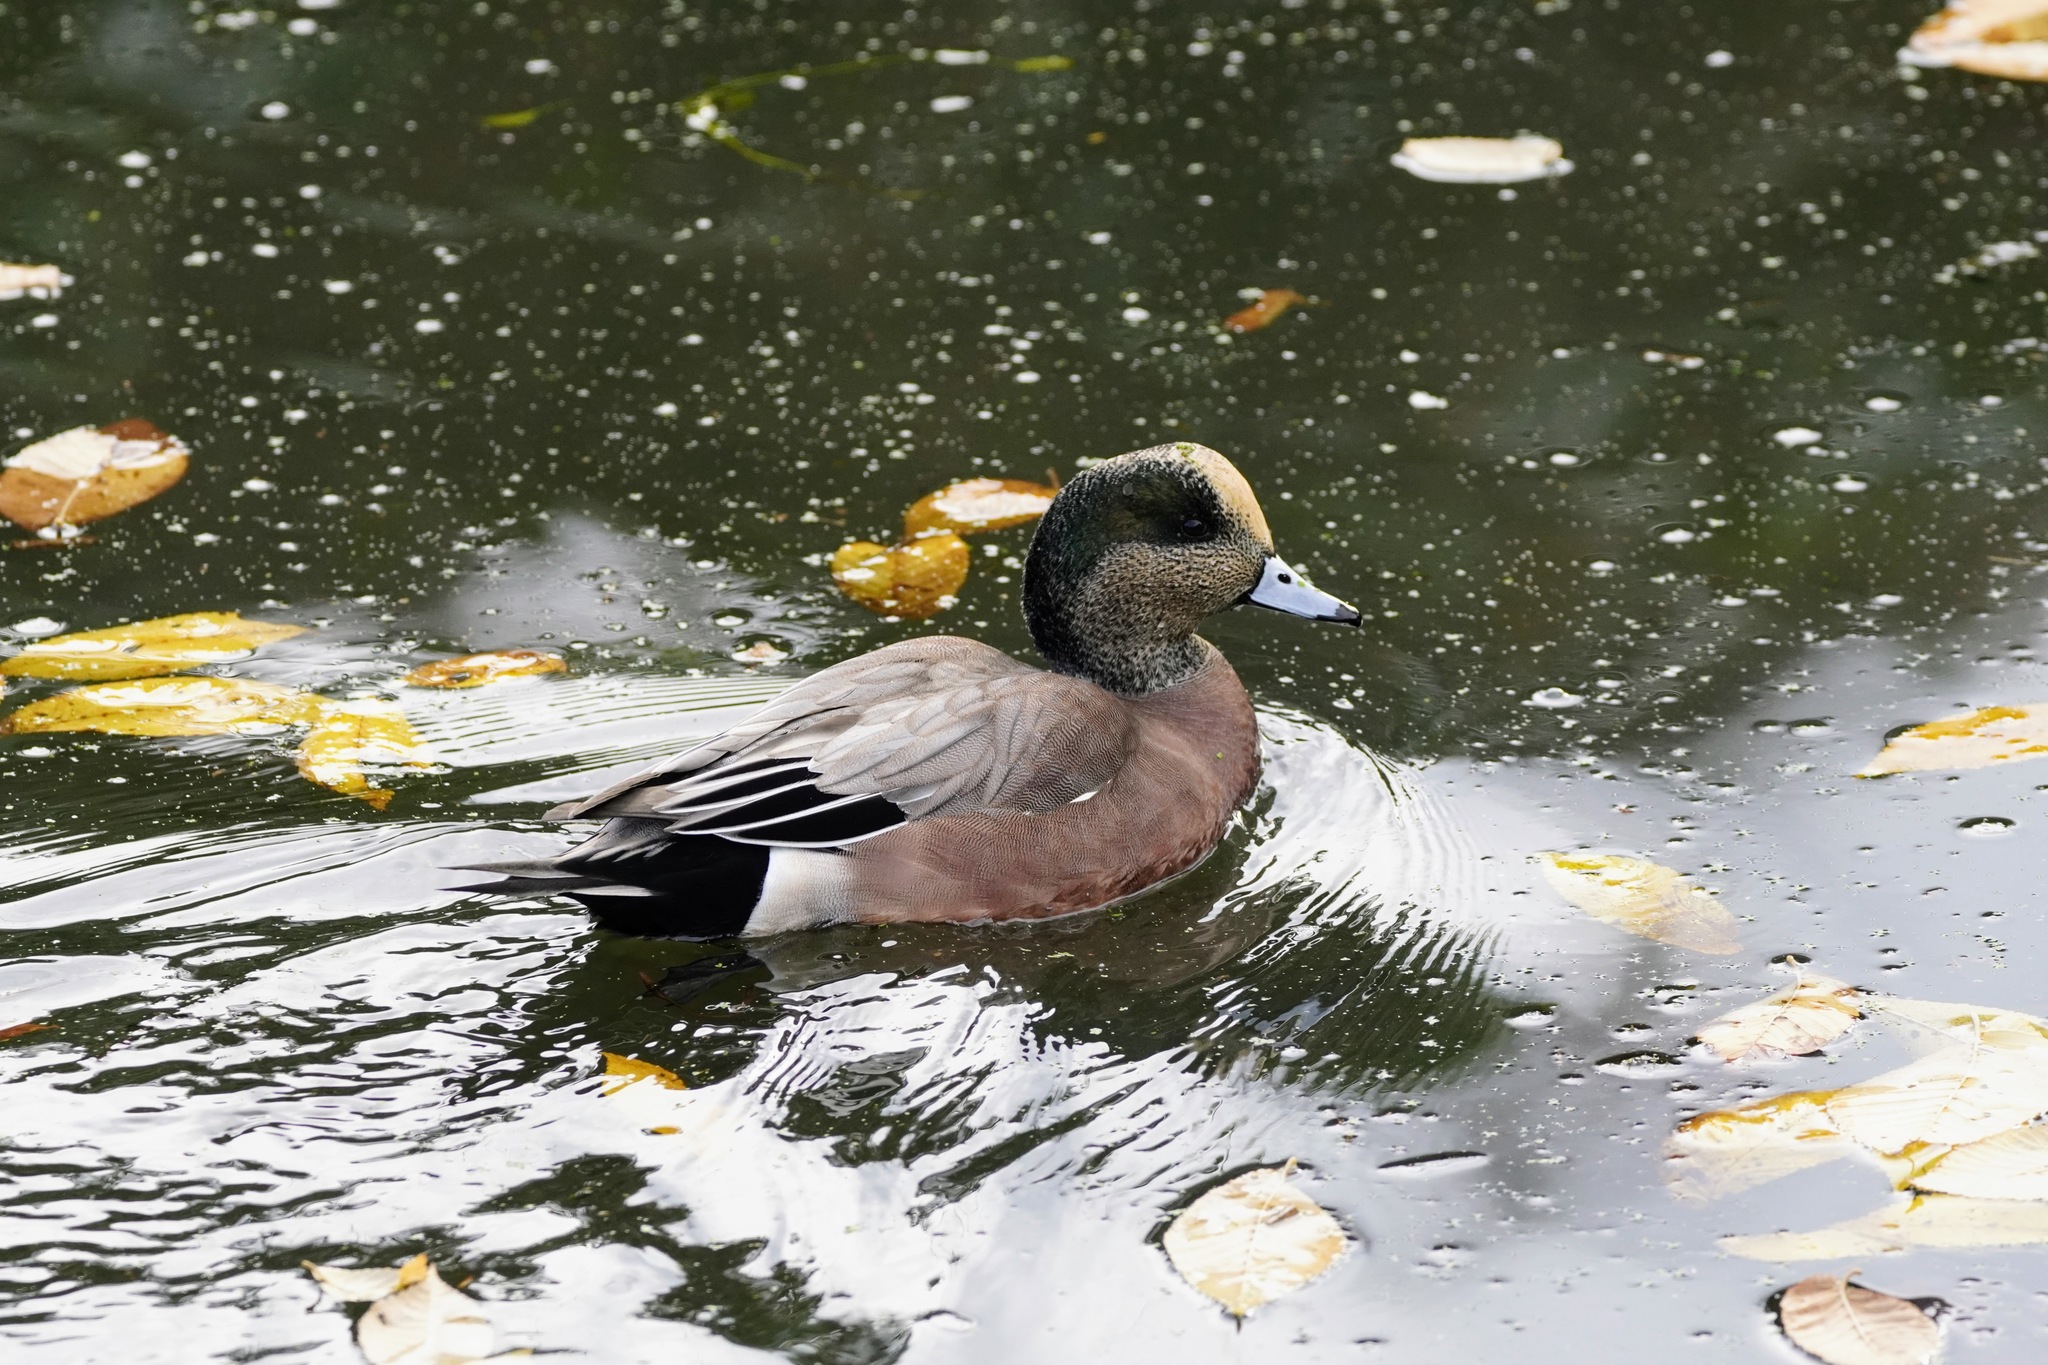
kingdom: Animalia
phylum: Chordata
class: Aves
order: Anseriformes
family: Anatidae
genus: Mareca
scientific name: Mareca americana
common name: American wigeon
